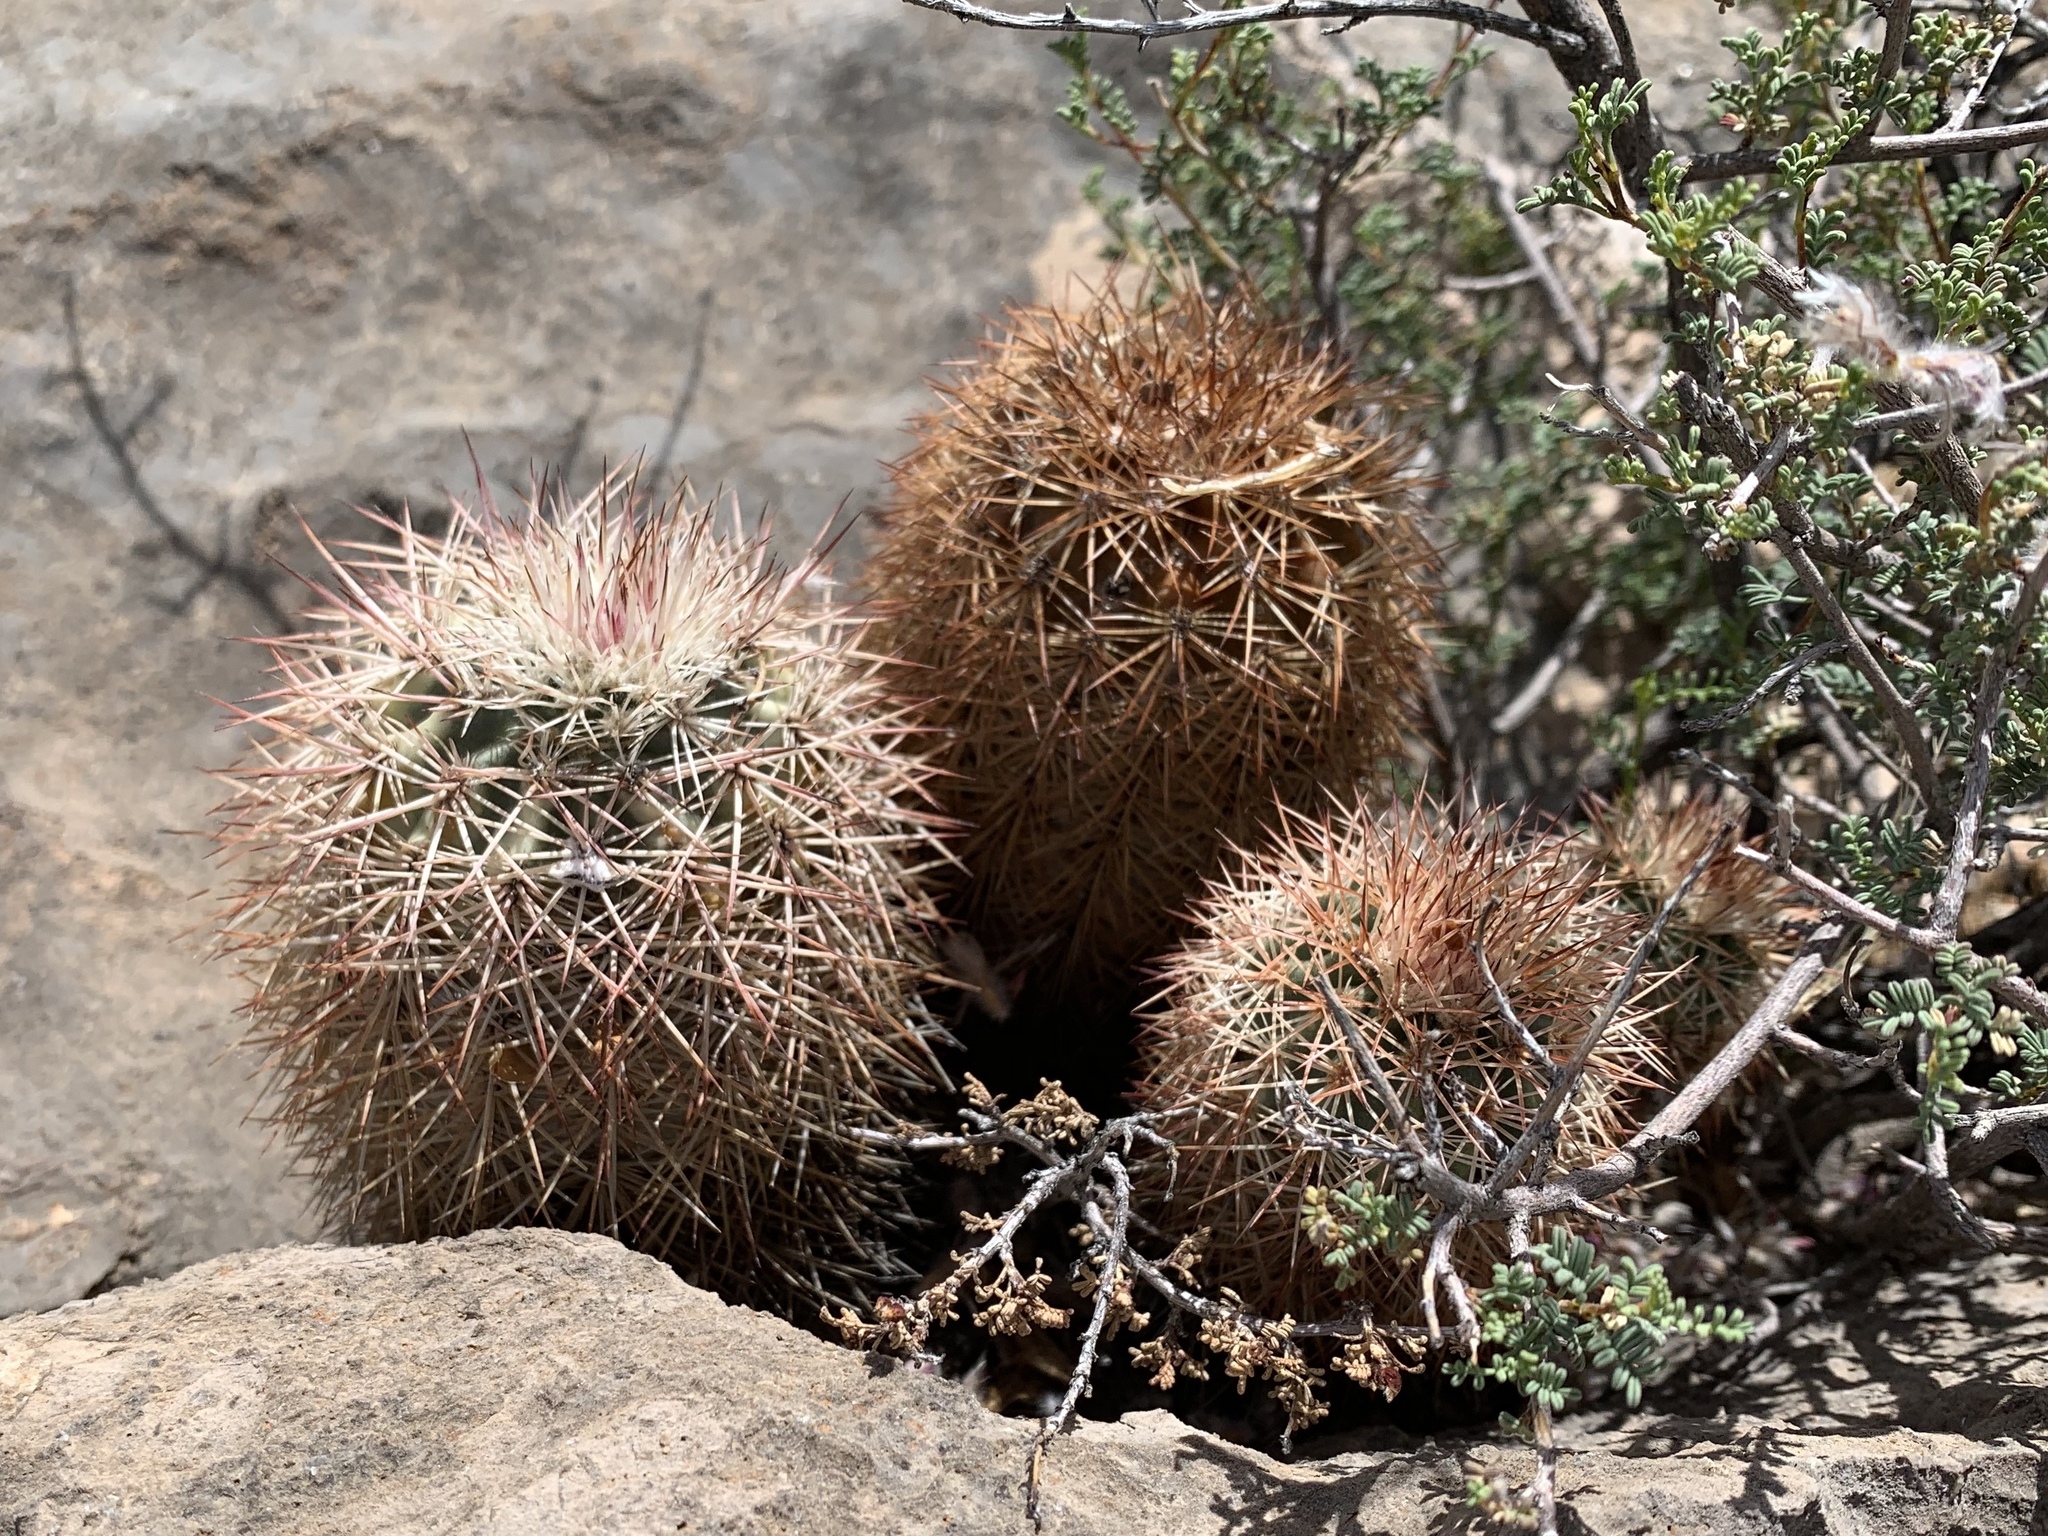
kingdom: Plantae
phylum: Tracheophyta
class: Magnoliopsida
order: Caryophyllales
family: Cactaceae
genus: Echinocereus
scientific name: Echinocereus dasyacanthus
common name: Spiny hedgehog cactus
